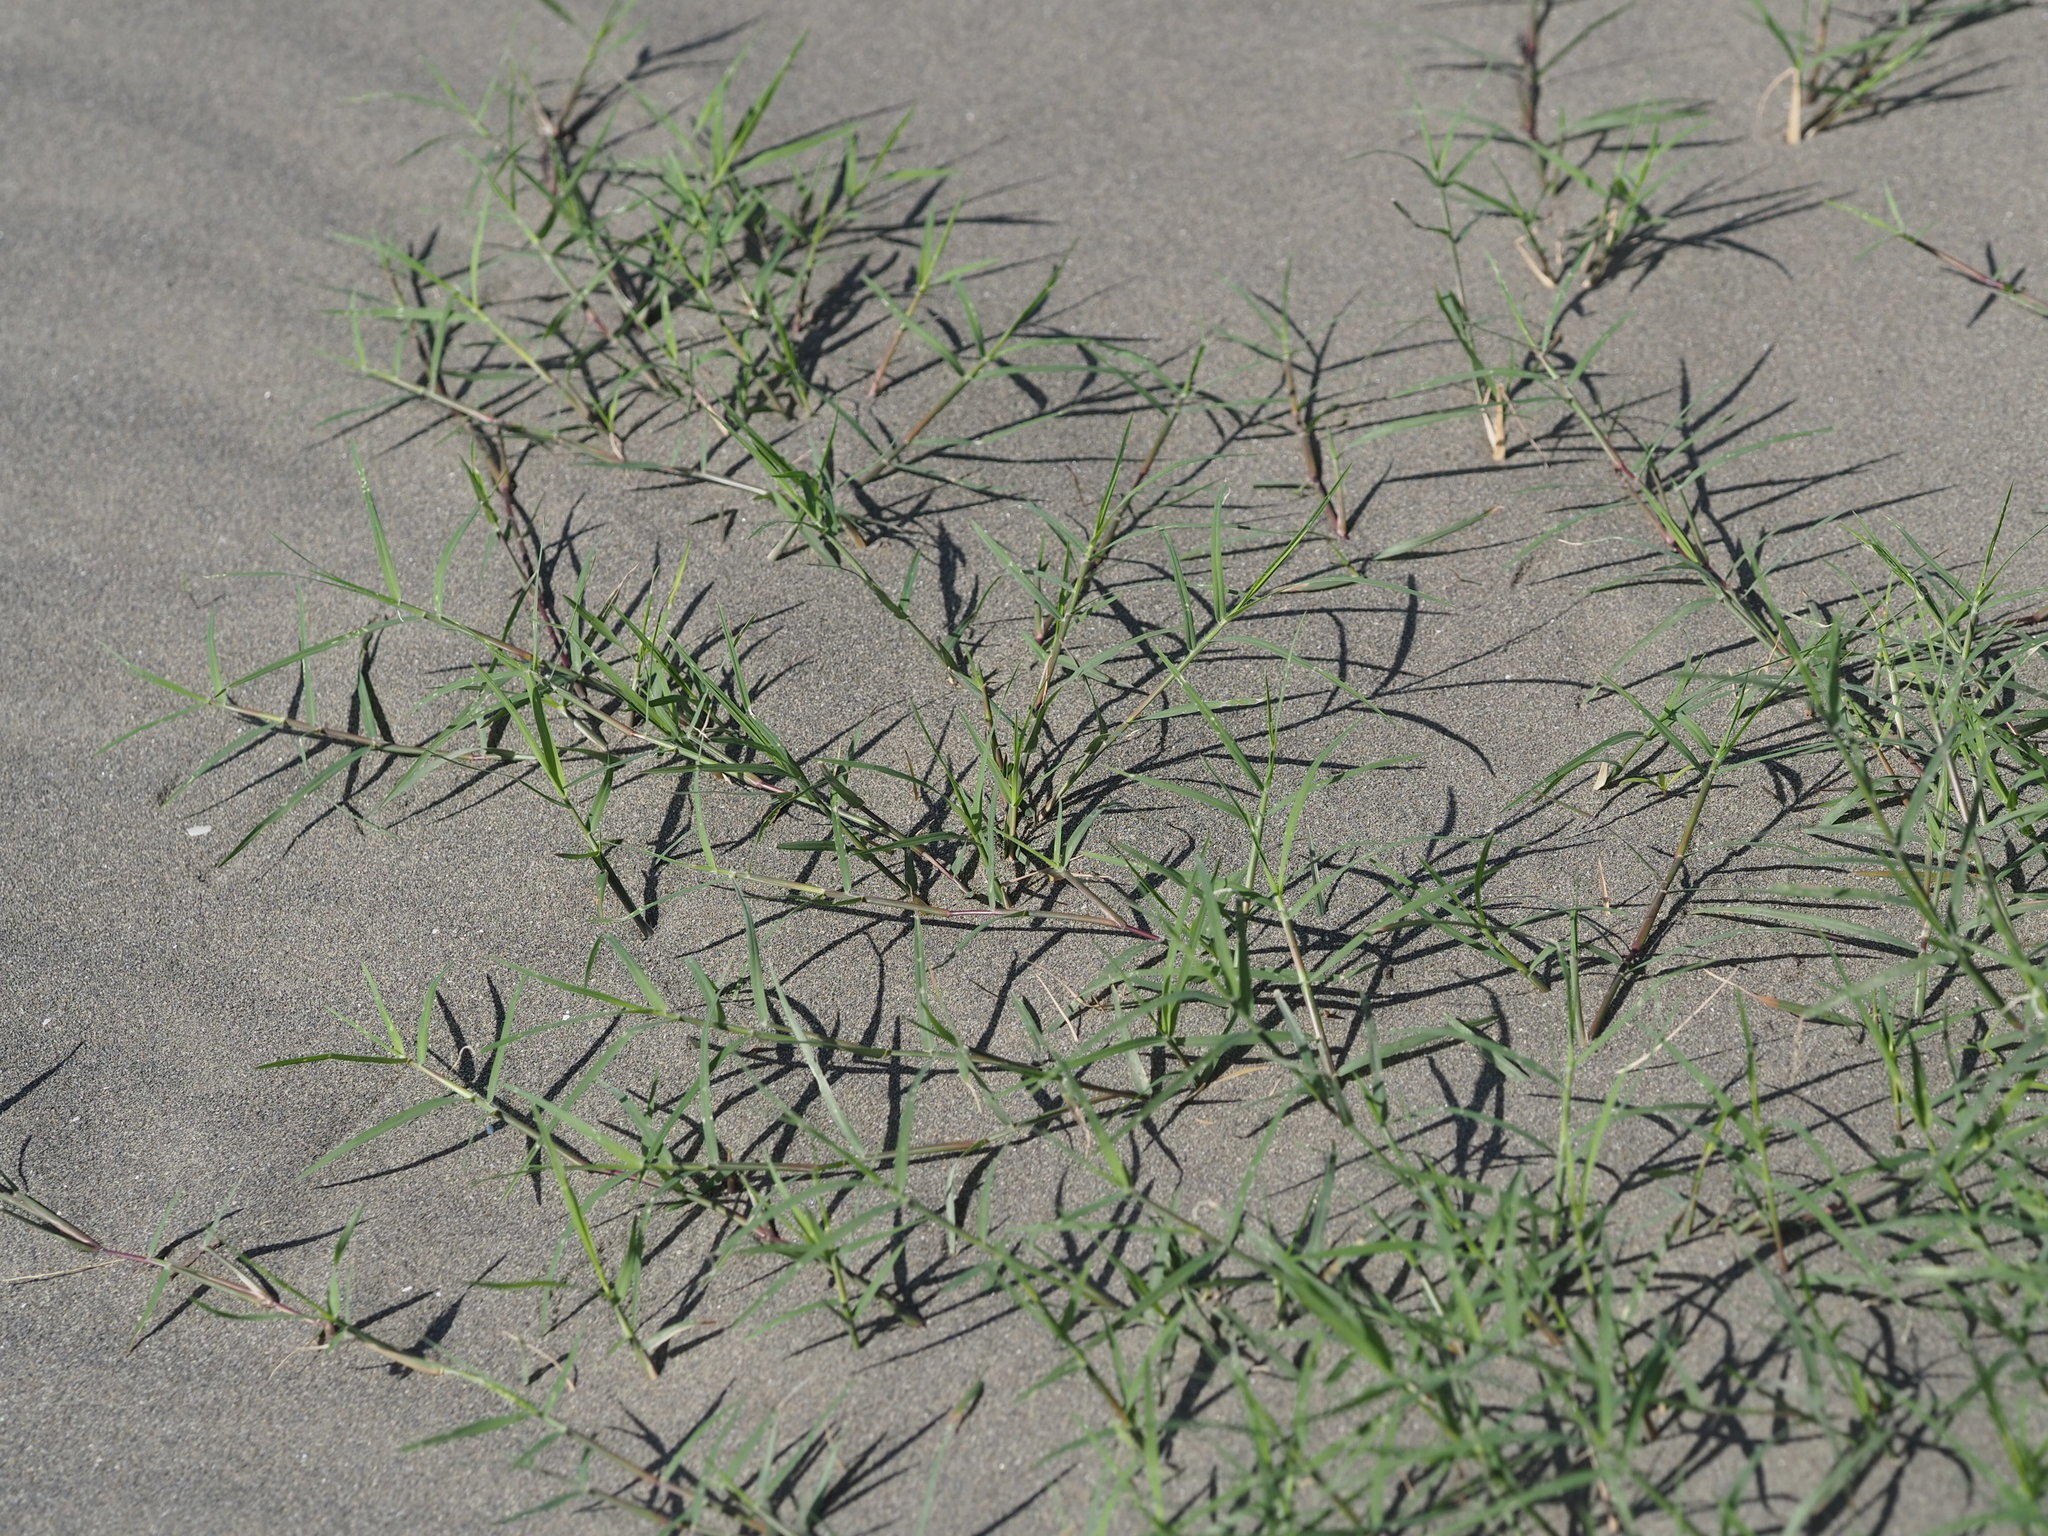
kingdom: Plantae
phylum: Tracheophyta
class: Liliopsida
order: Poales
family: Poaceae
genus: Cynodon
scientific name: Cynodon dactylon
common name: Bermuda grass
